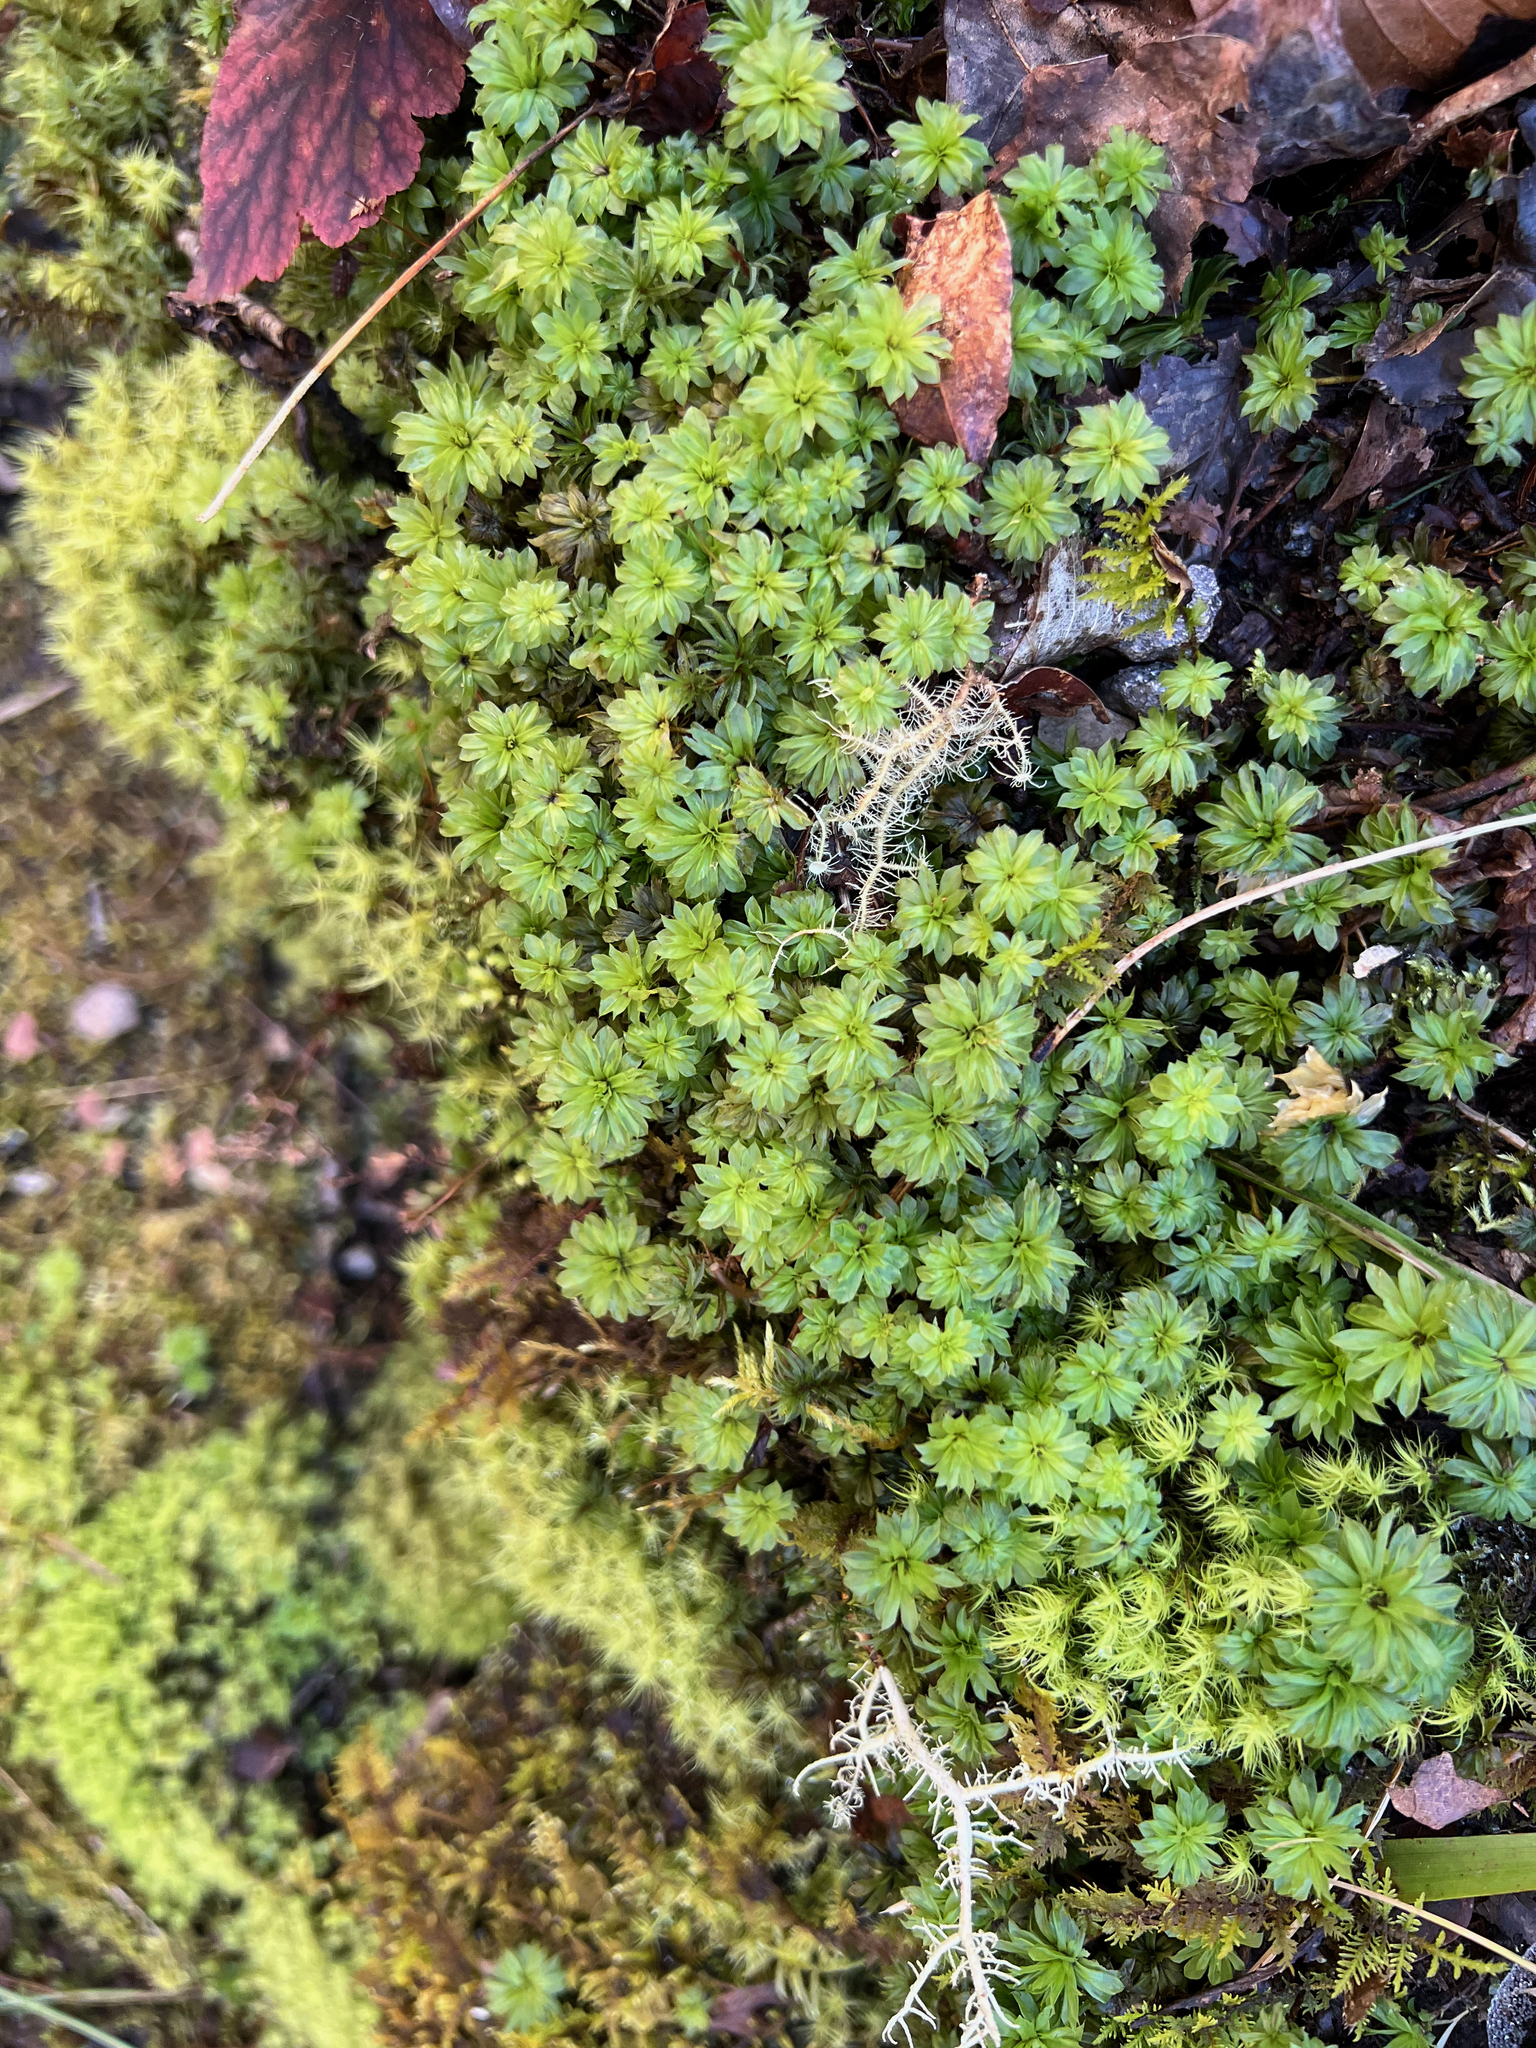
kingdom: Plantae
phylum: Bryophyta
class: Bryopsida
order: Bryales
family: Bryaceae
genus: Rhodobryum
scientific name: Rhodobryum ontariense
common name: Ontario rhodobryum moss
